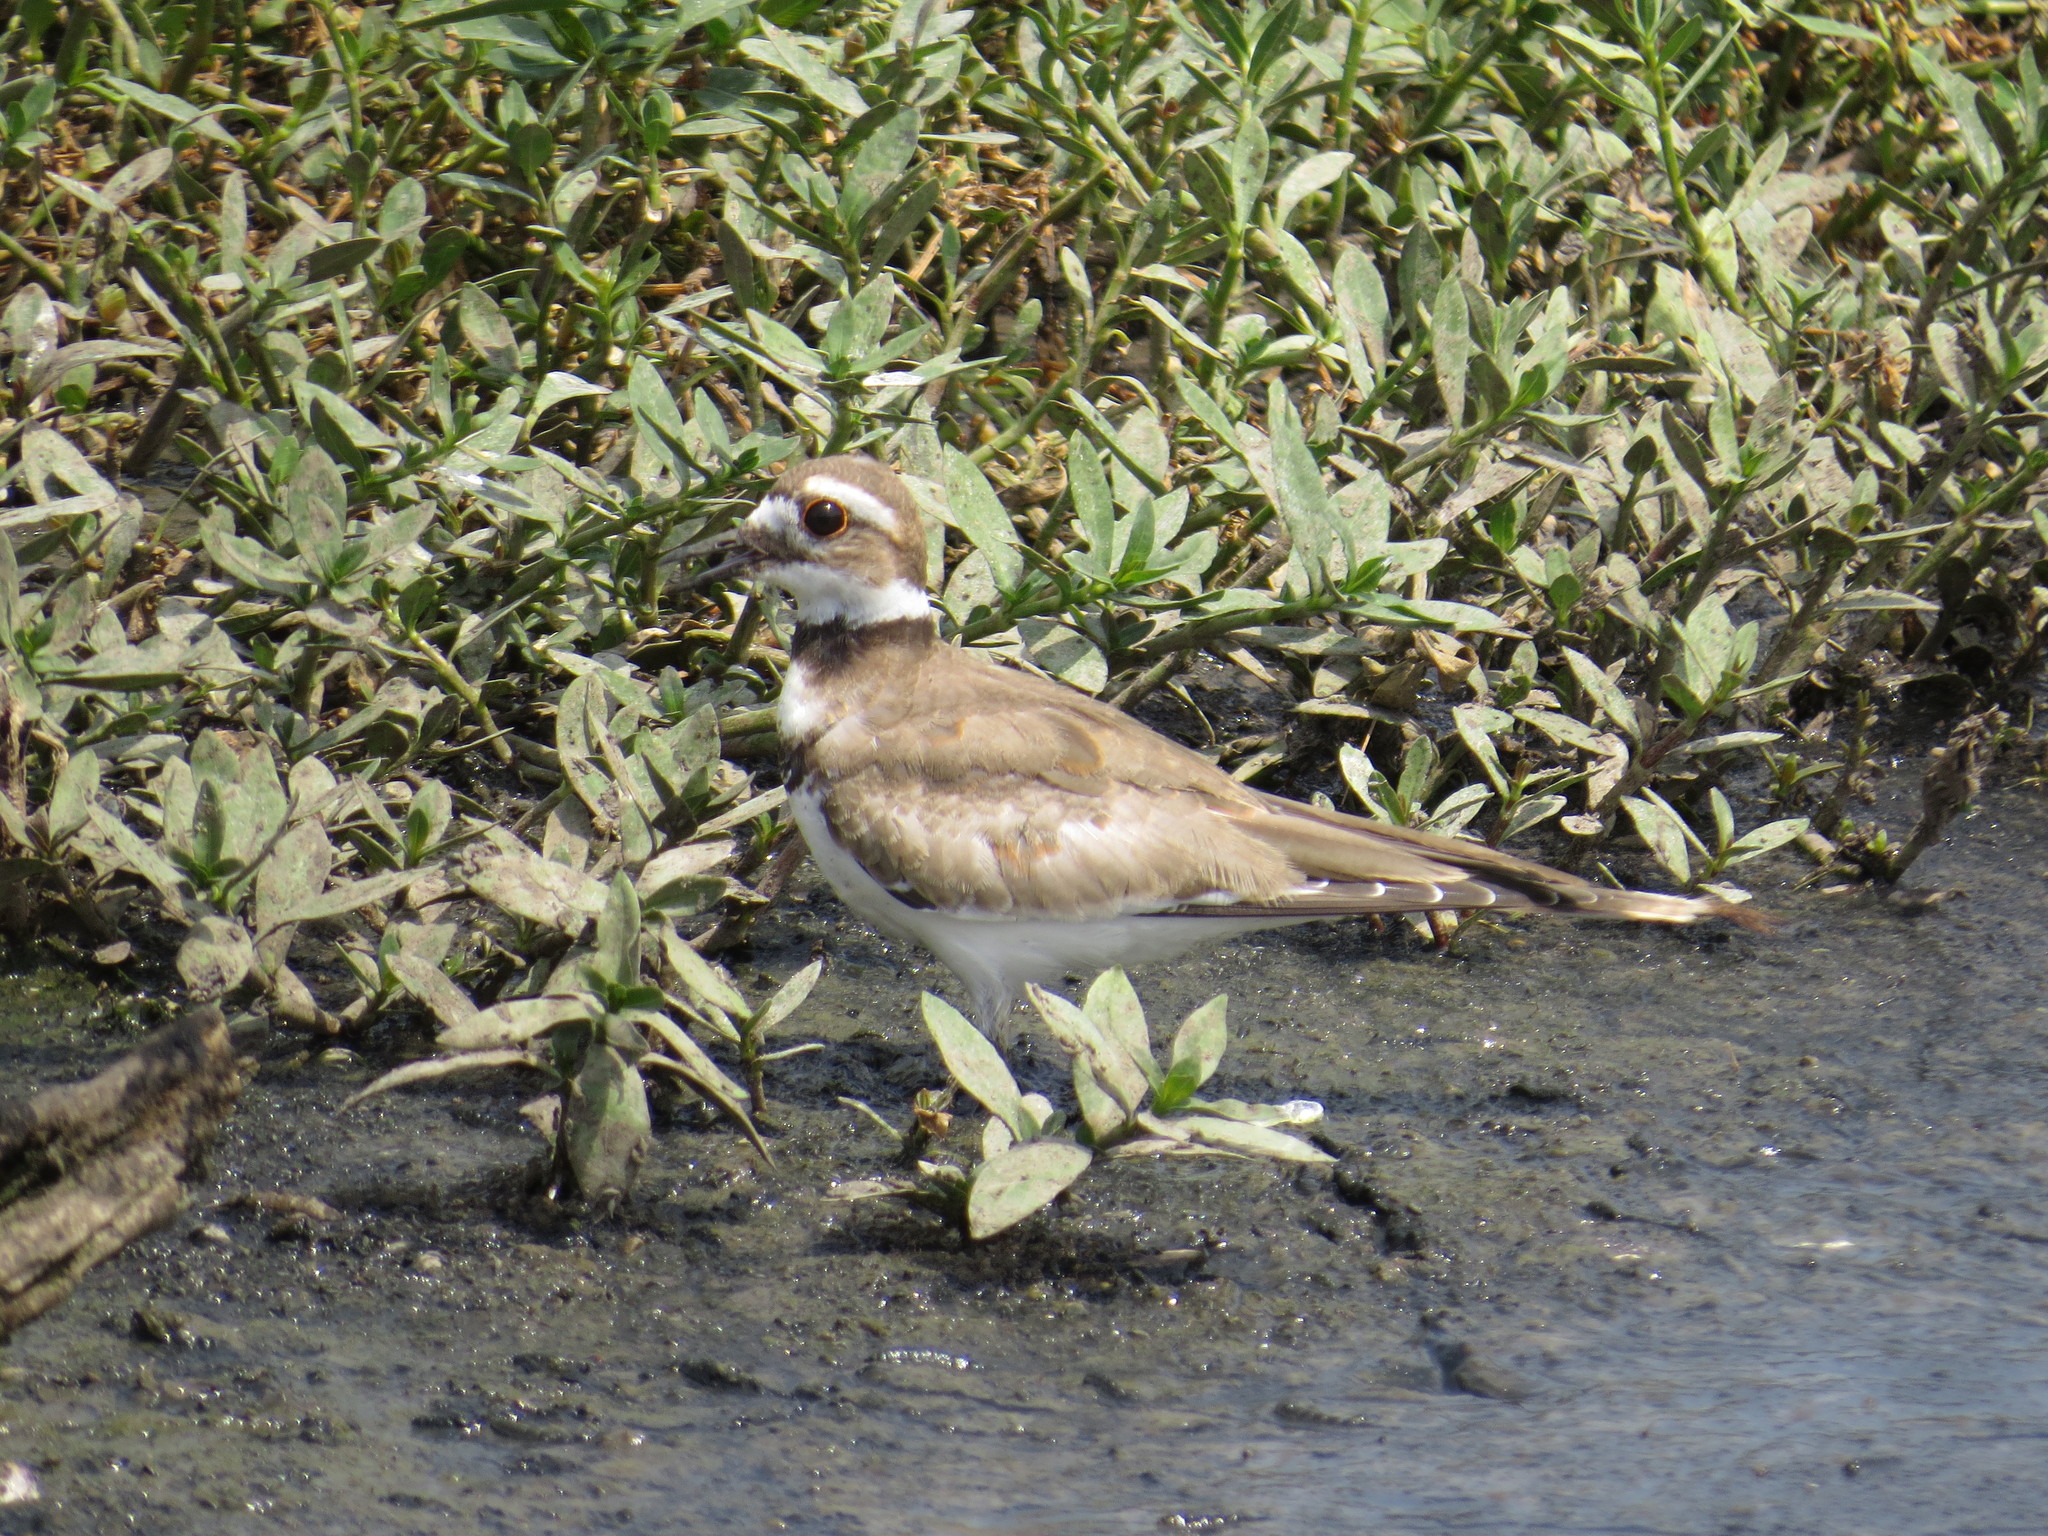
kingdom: Animalia
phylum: Chordata
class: Aves
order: Charadriiformes
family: Charadriidae
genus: Charadrius
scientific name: Charadrius vociferus
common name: Killdeer
